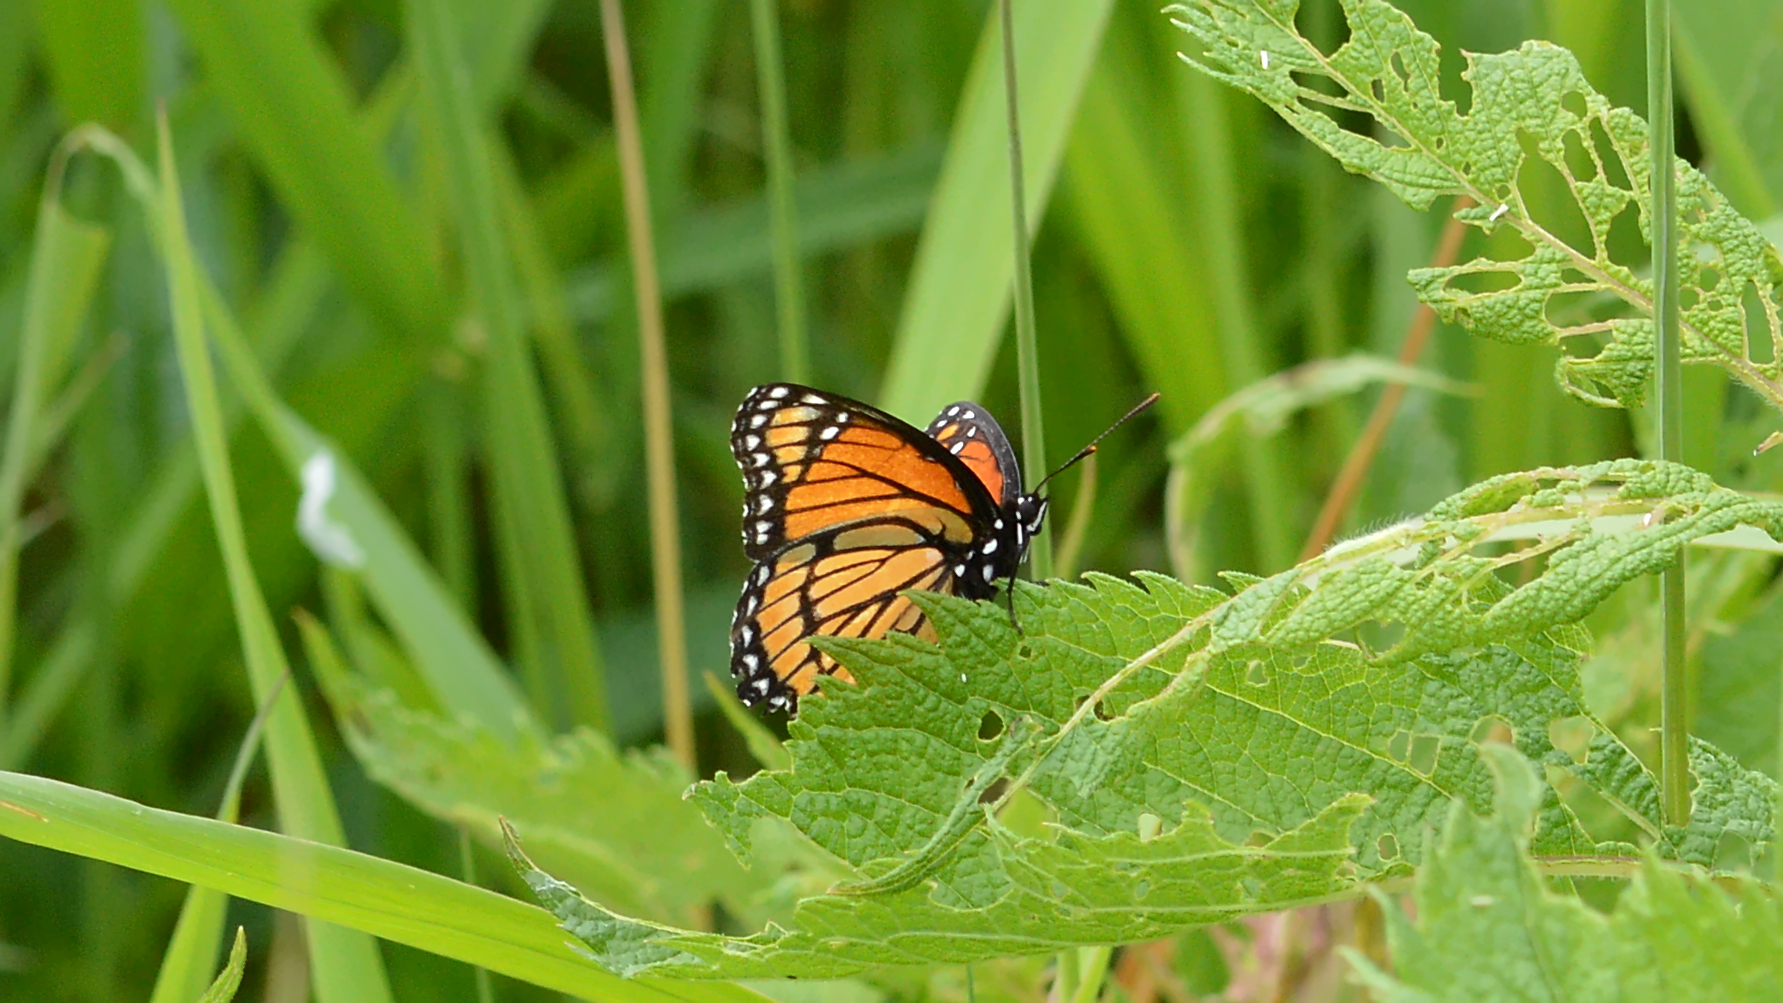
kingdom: Animalia
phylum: Arthropoda
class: Insecta
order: Lepidoptera
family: Nymphalidae
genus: Limenitis
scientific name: Limenitis archippus
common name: Viceroy
